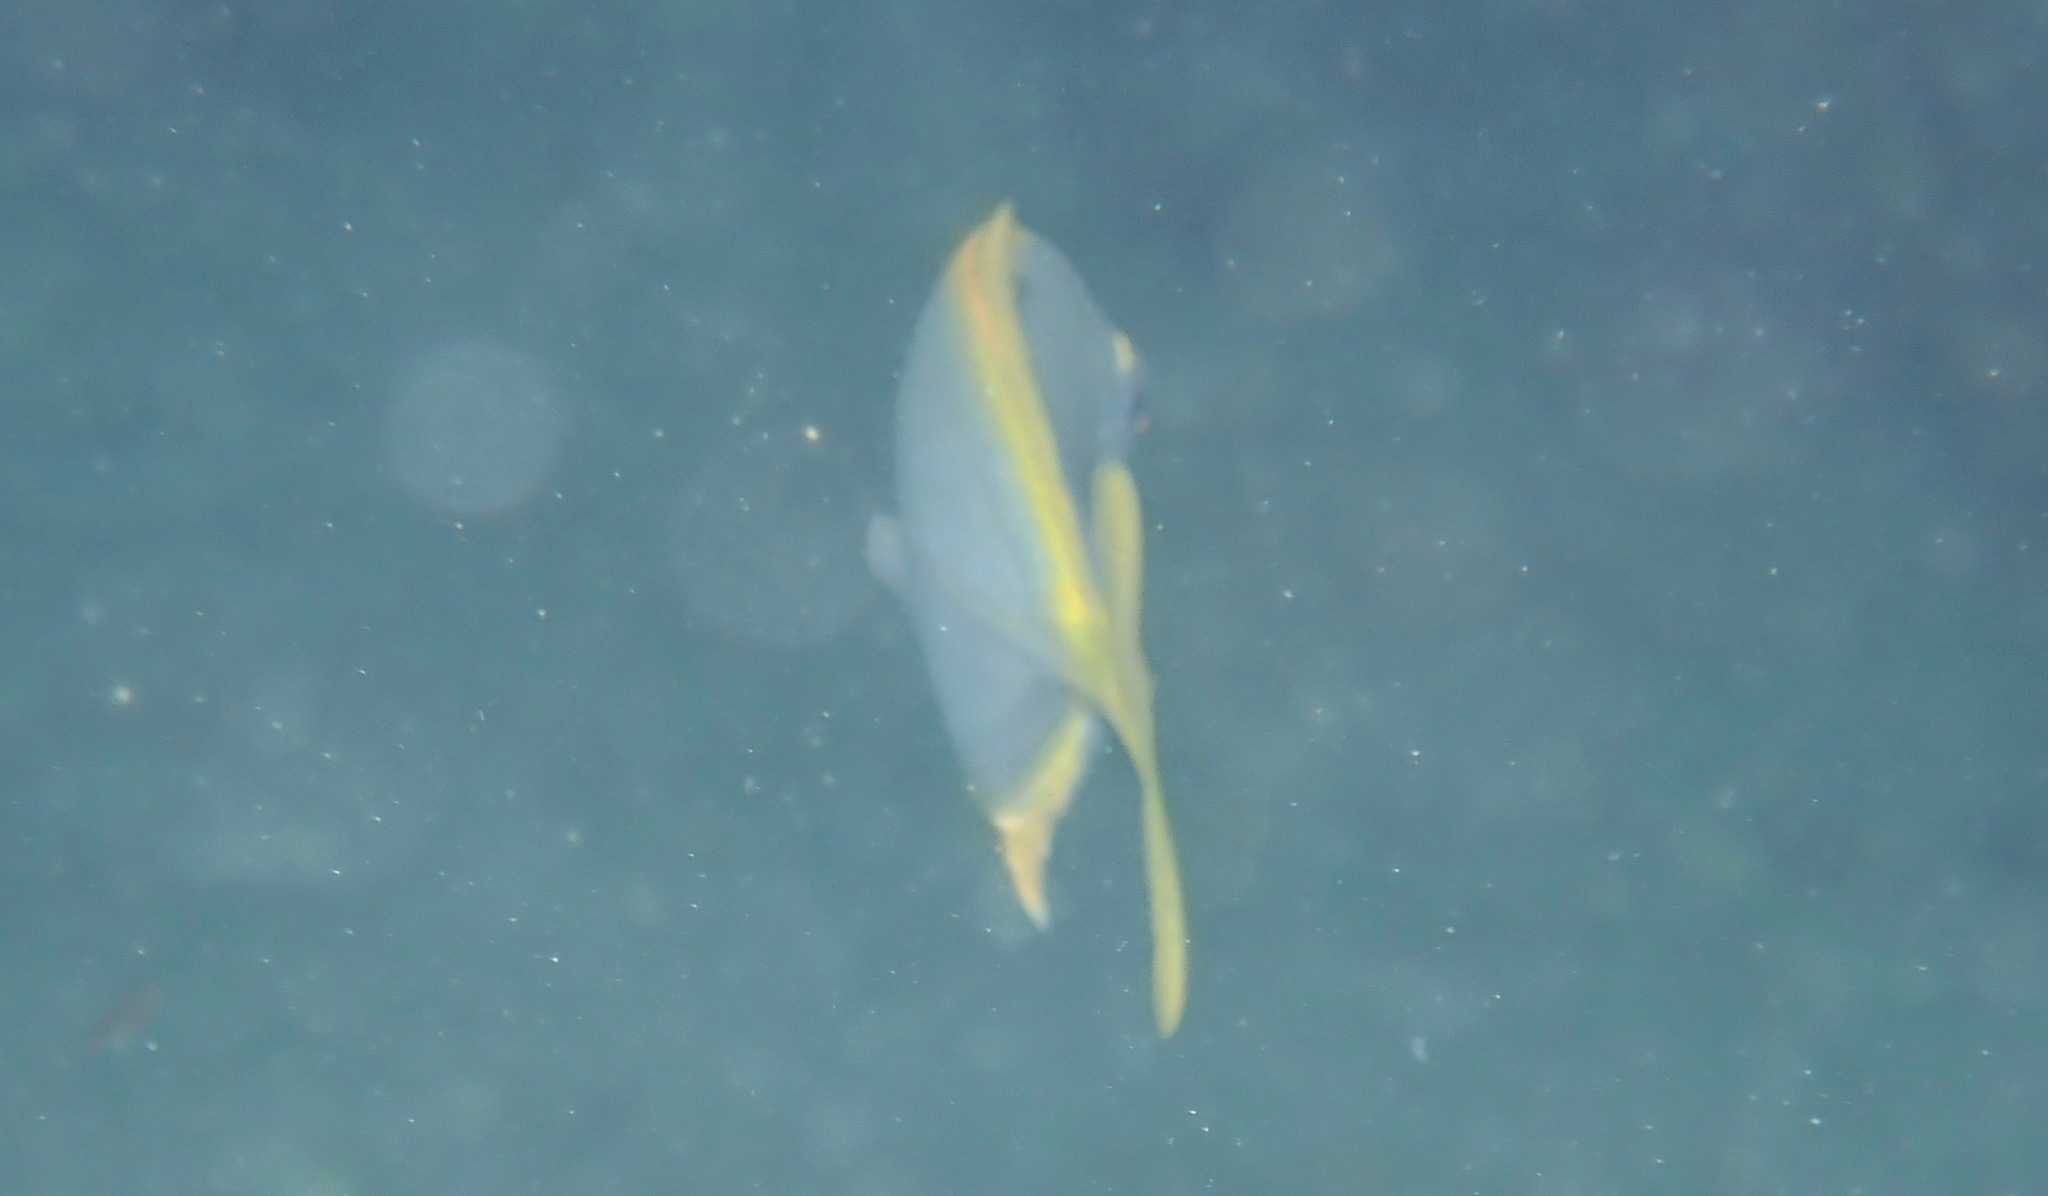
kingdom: Animalia
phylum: Chordata
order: Perciformes
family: Carangidae
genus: Carangoides
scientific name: Carangoides bartholomaei
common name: Yellow jack
